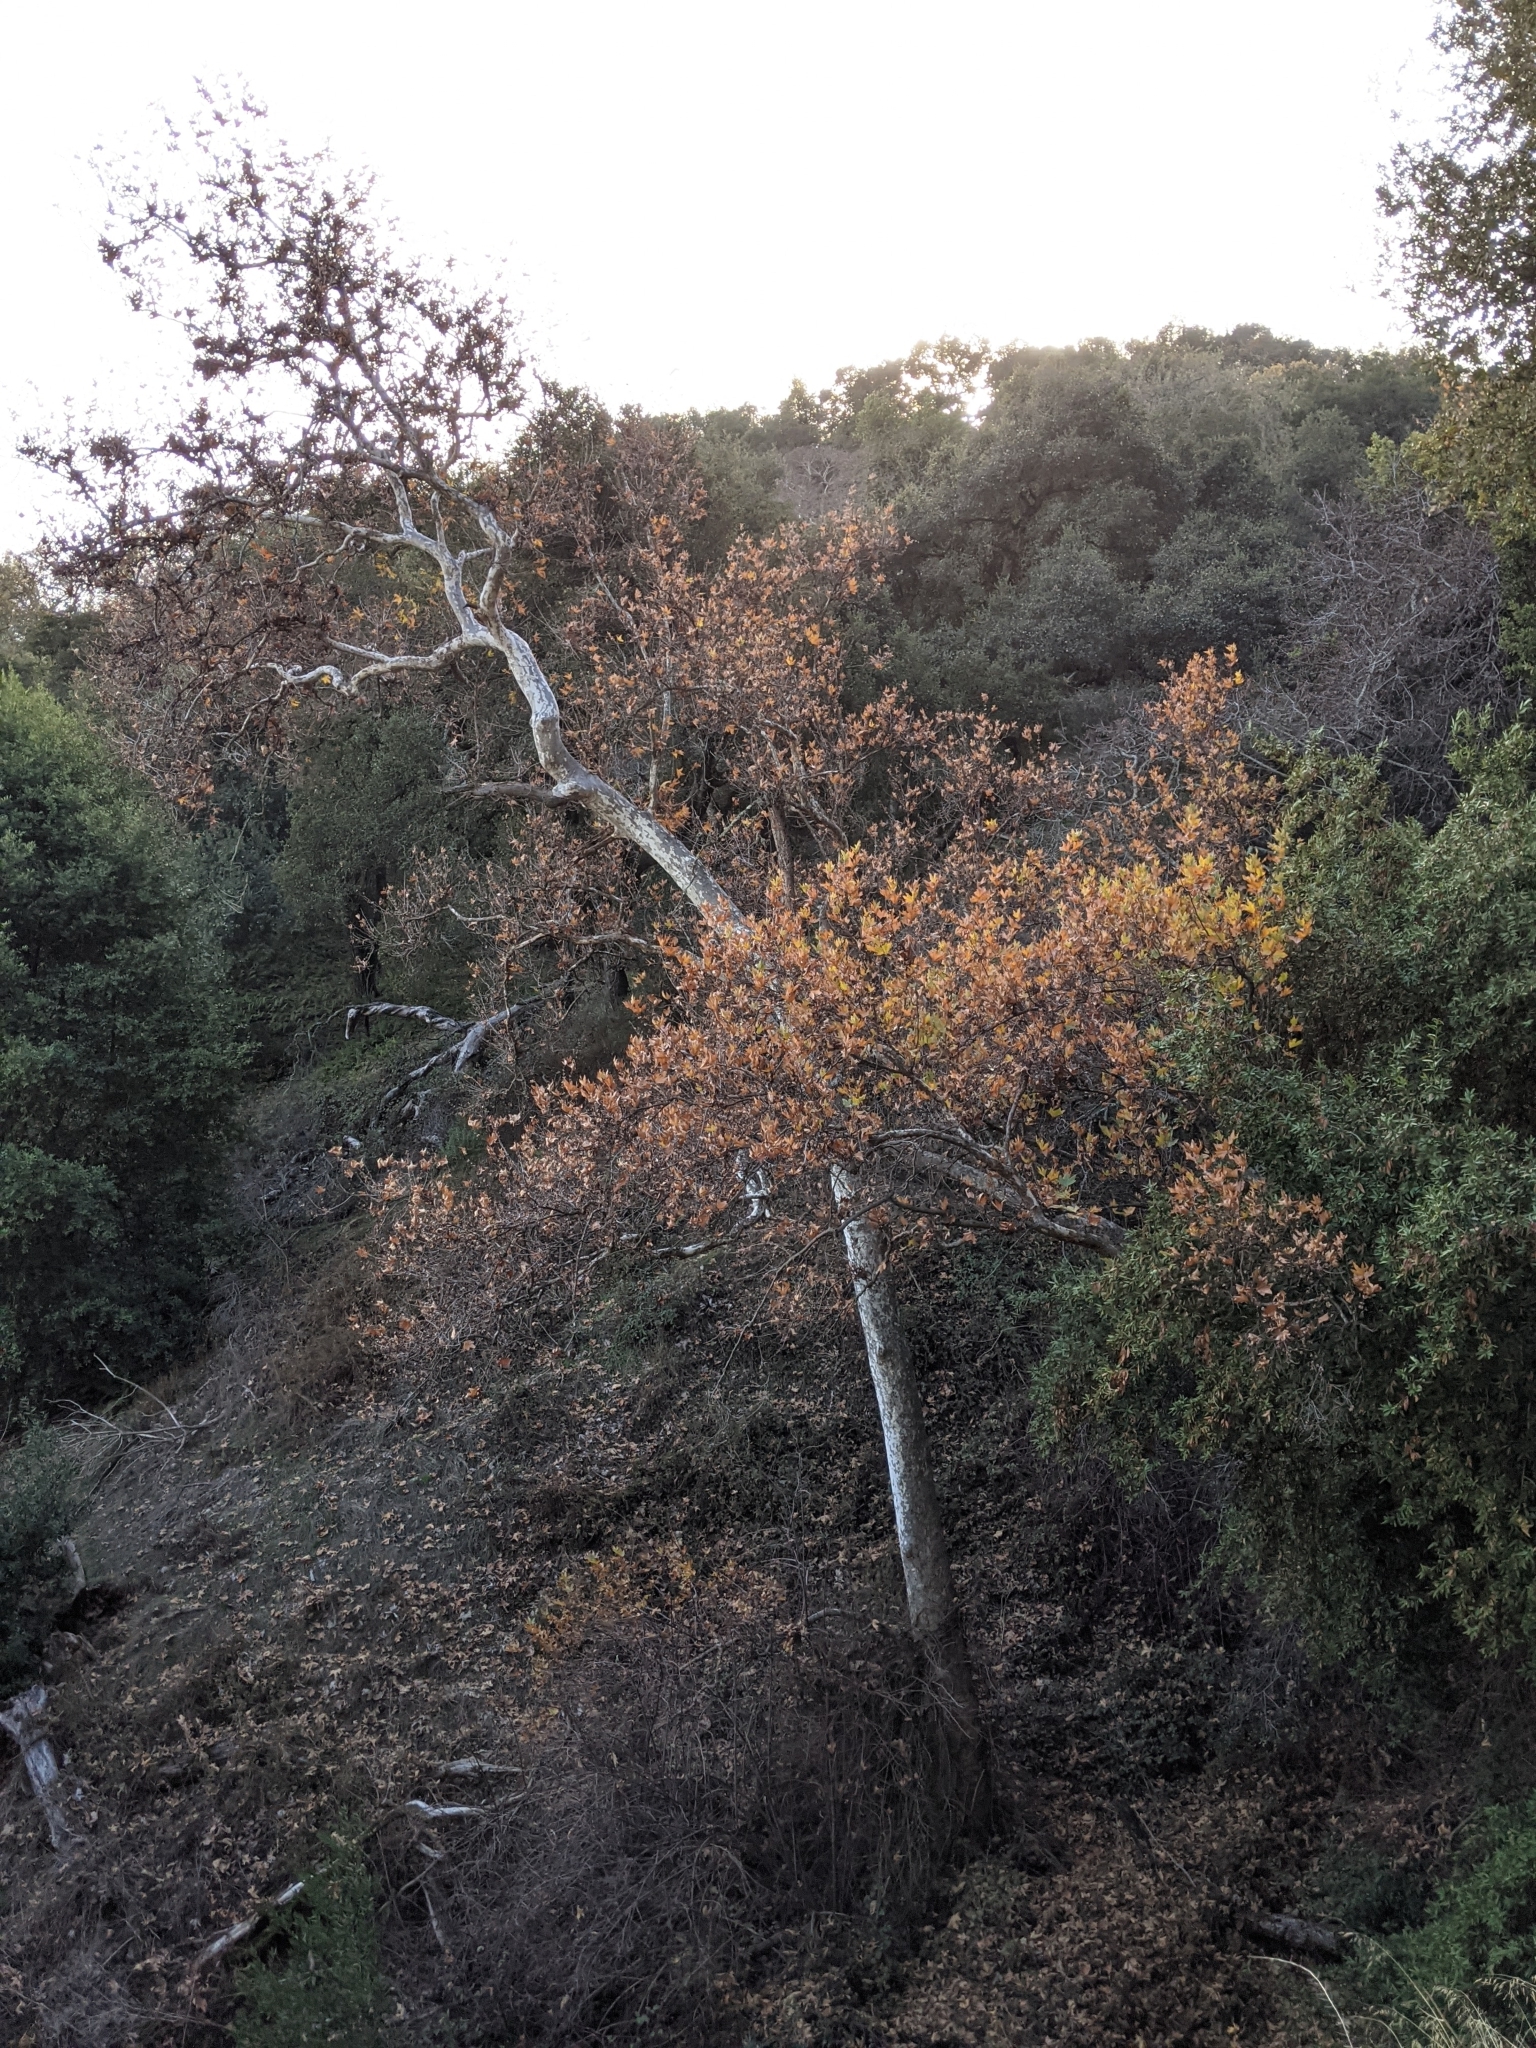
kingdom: Plantae
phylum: Tracheophyta
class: Magnoliopsida
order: Proteales
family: Platanaceae
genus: Platanus
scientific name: Platanus racemosa
